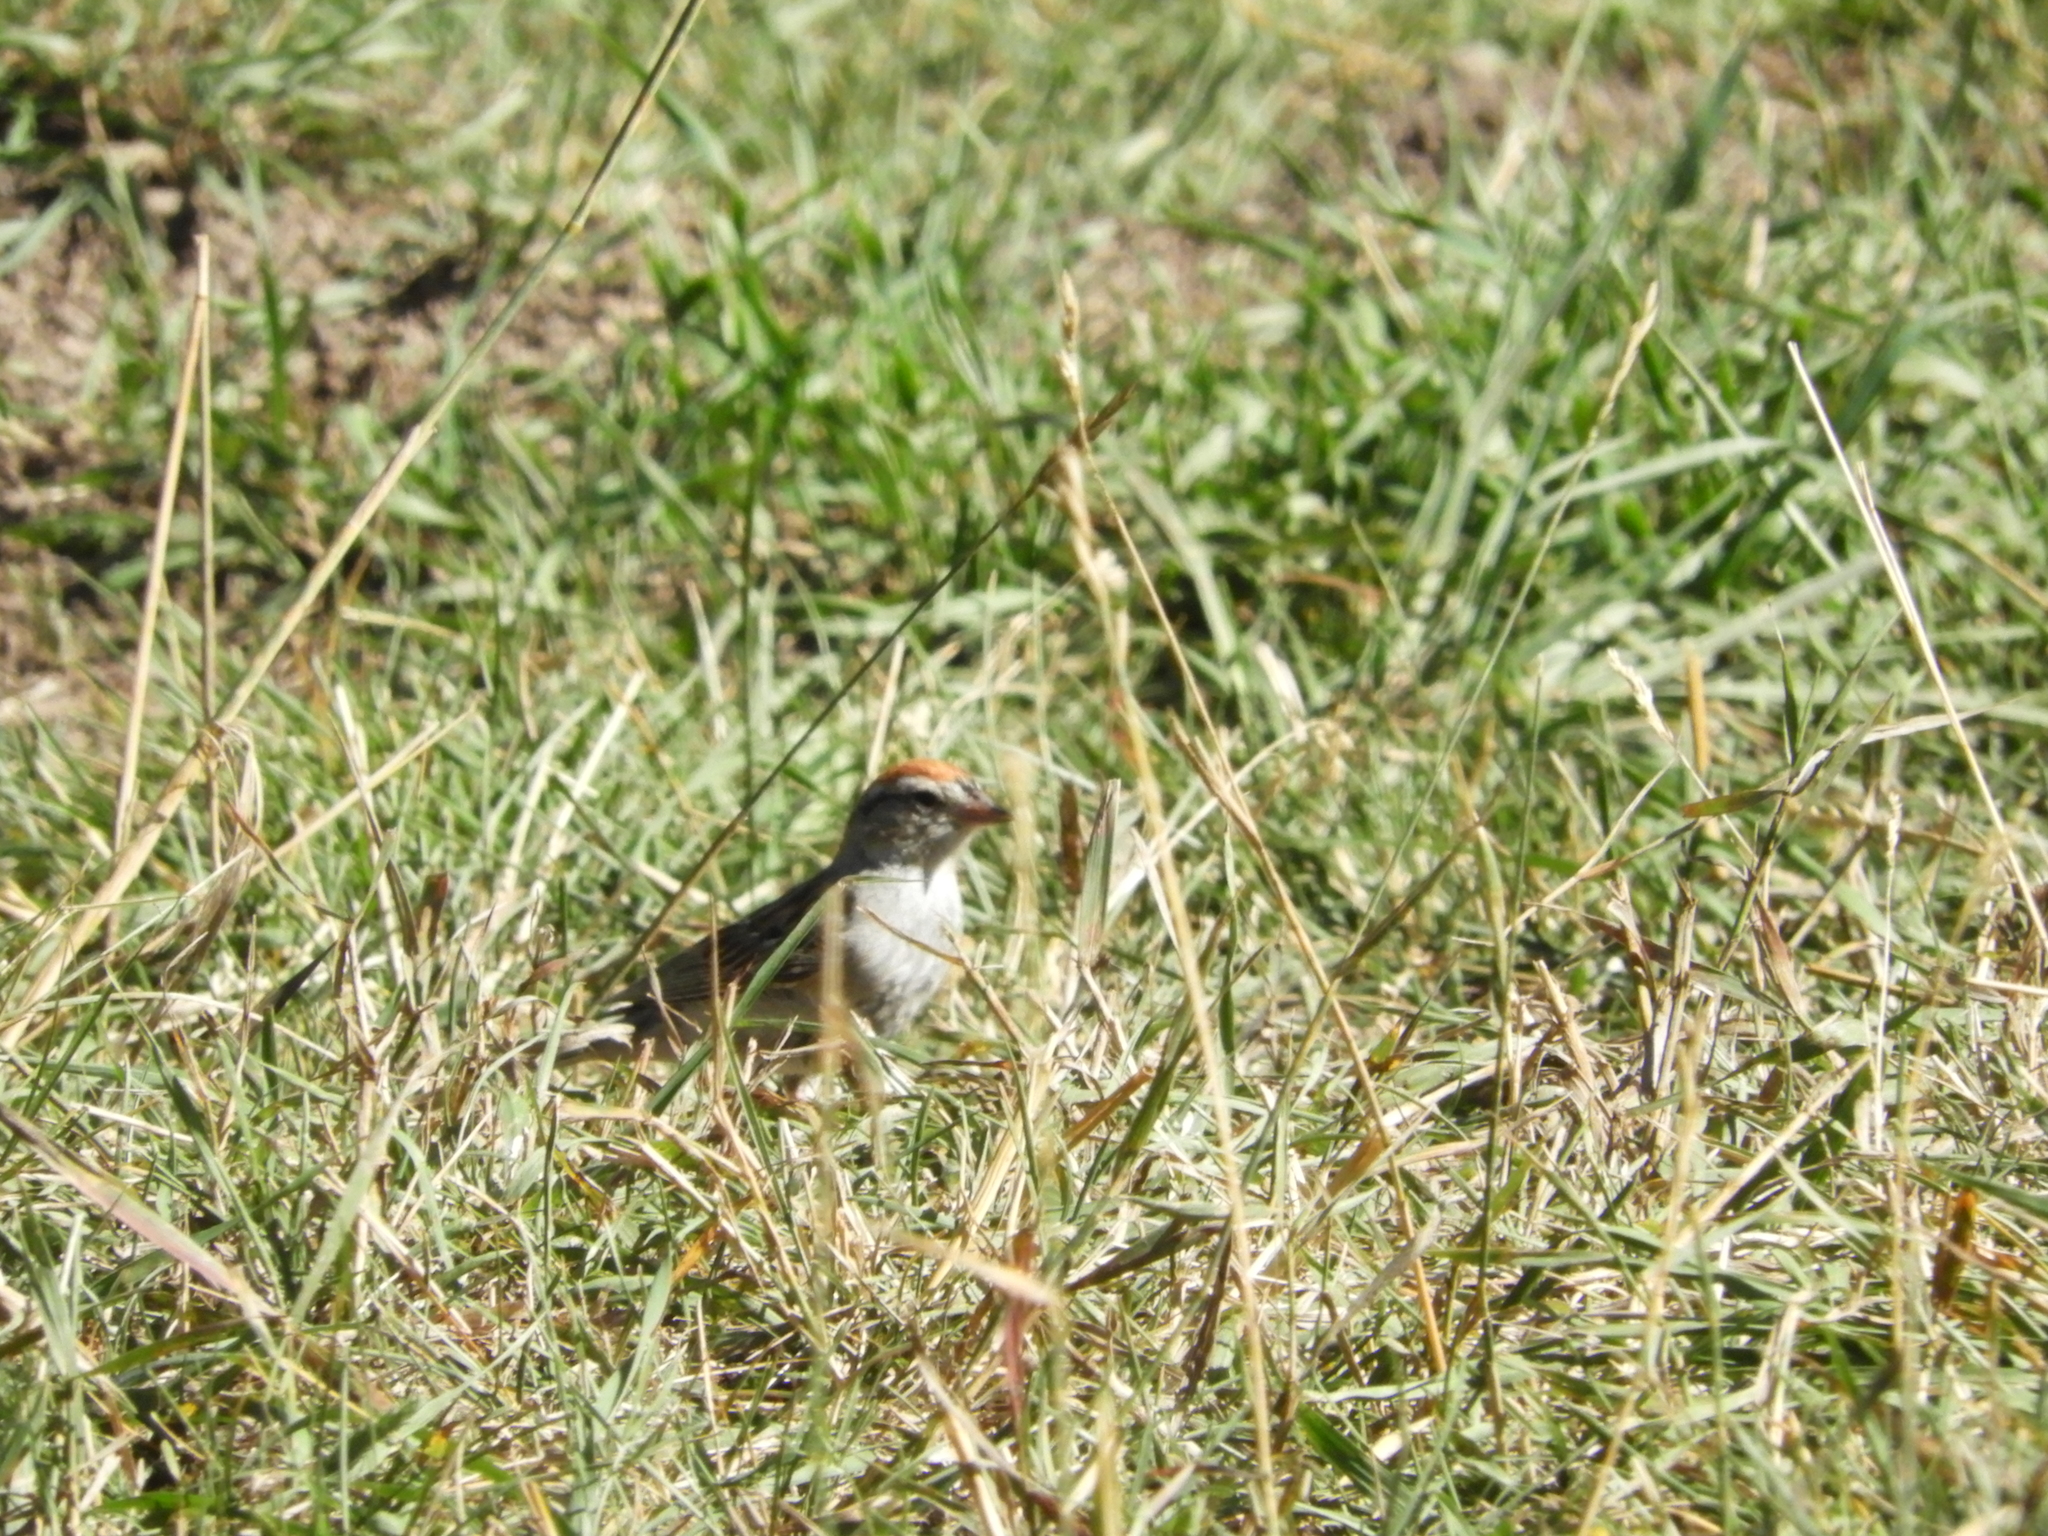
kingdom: Animalia
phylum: Chordata
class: Aves
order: Passeriformes
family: Passerellidae
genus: Spizella
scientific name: Spizella passerina
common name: Chipping sparrow
